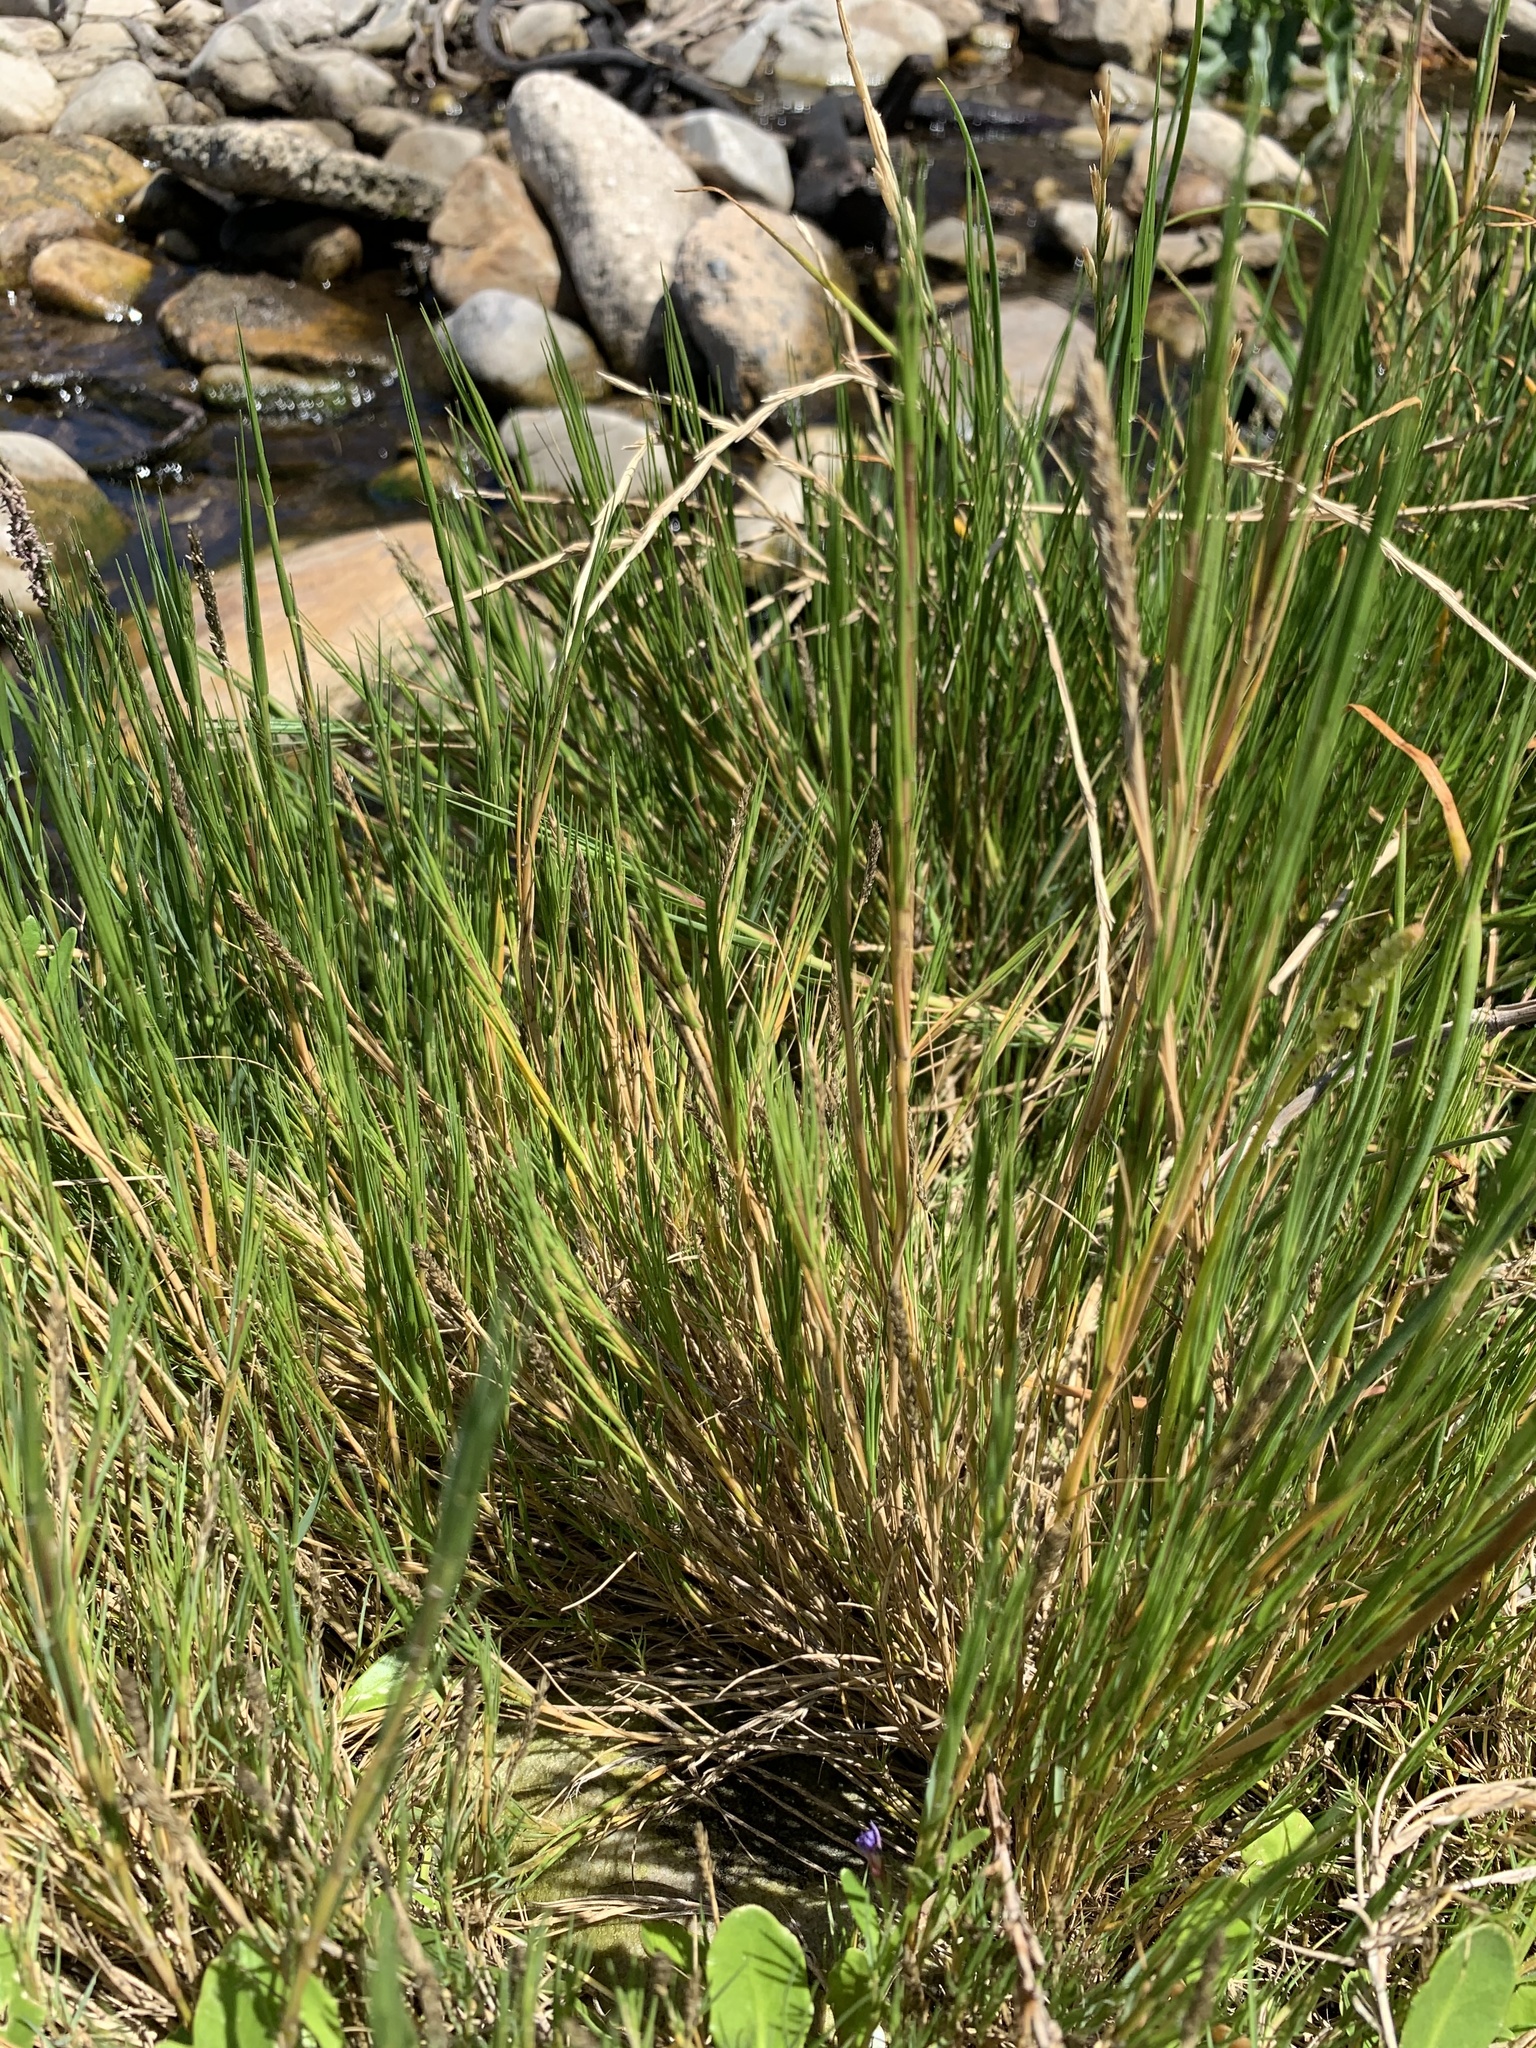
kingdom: Plantae
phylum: Tracheophyta
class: Liliopsida
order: Poales
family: Poaceae
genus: Sporobolus
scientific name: Sporobolus virginicus
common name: Beach dropseed
